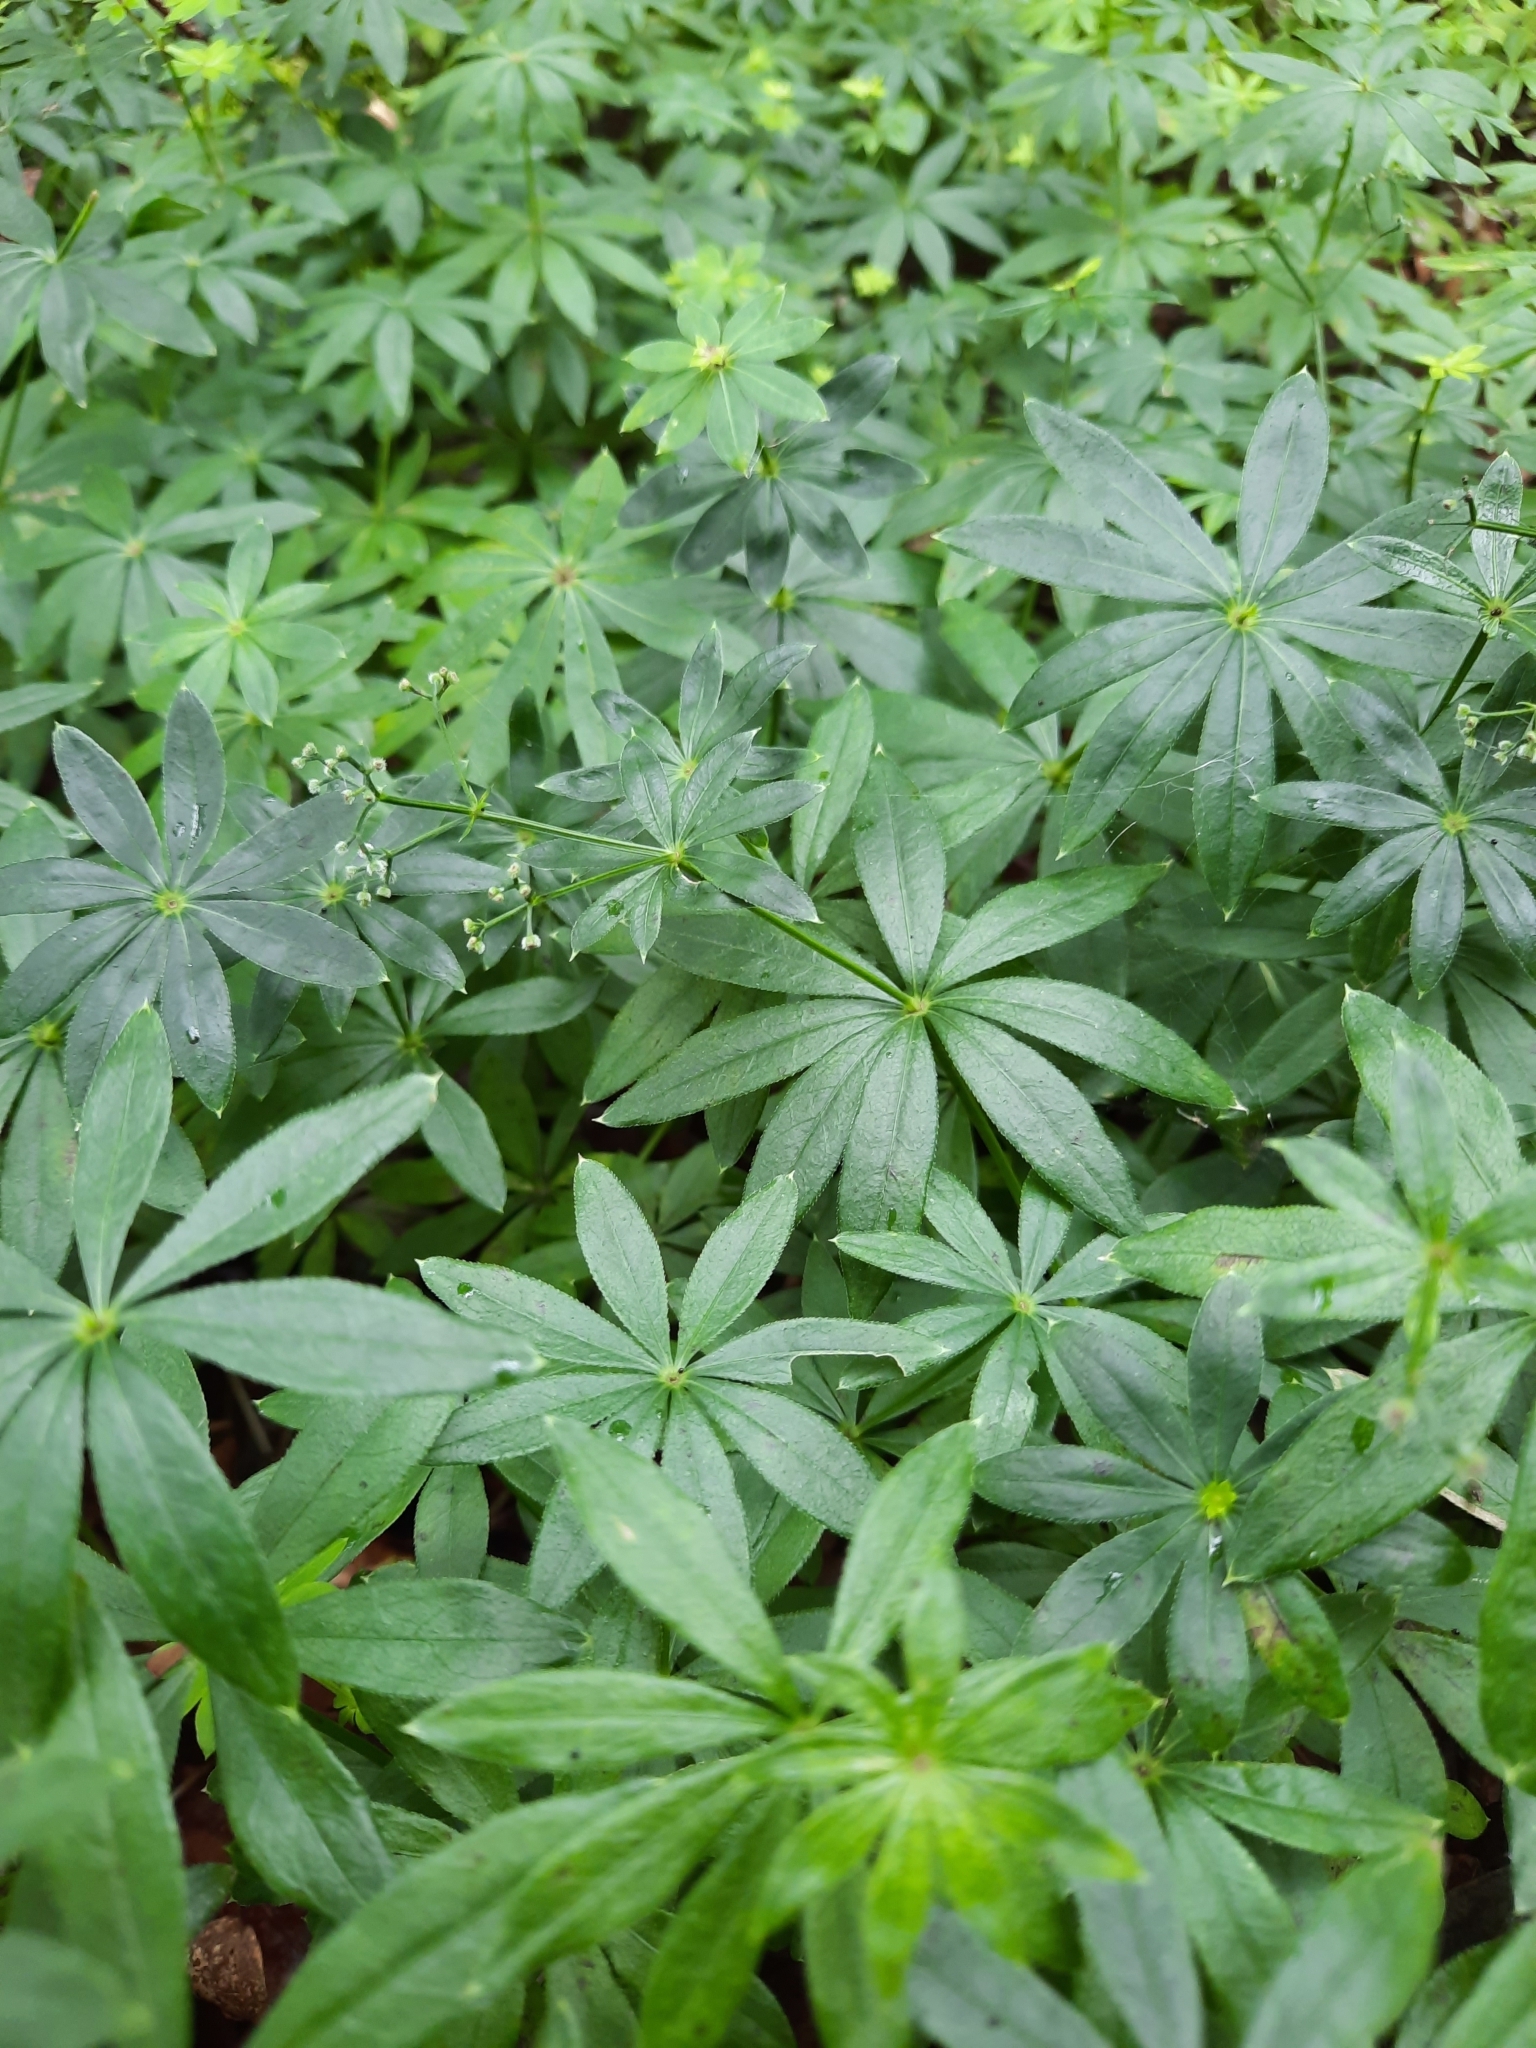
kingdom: Plantae
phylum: Tracheophyta
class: Magnoliopsida
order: Gentianales
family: Rubiaceae
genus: Galium
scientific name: Galium odoratum
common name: Sweet woodruff
